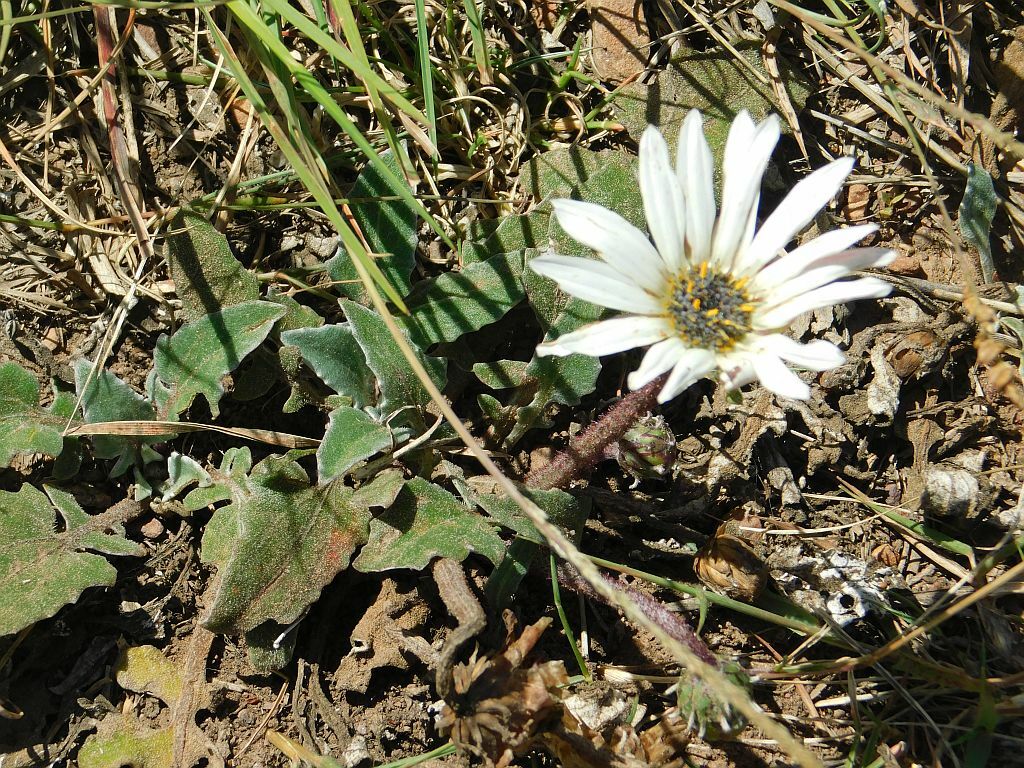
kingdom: Plantae
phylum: Tracheophyta
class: Magnoliopsida
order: Asterales
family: Asteraceae
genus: Arctotis
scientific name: Arctotis acaulis
